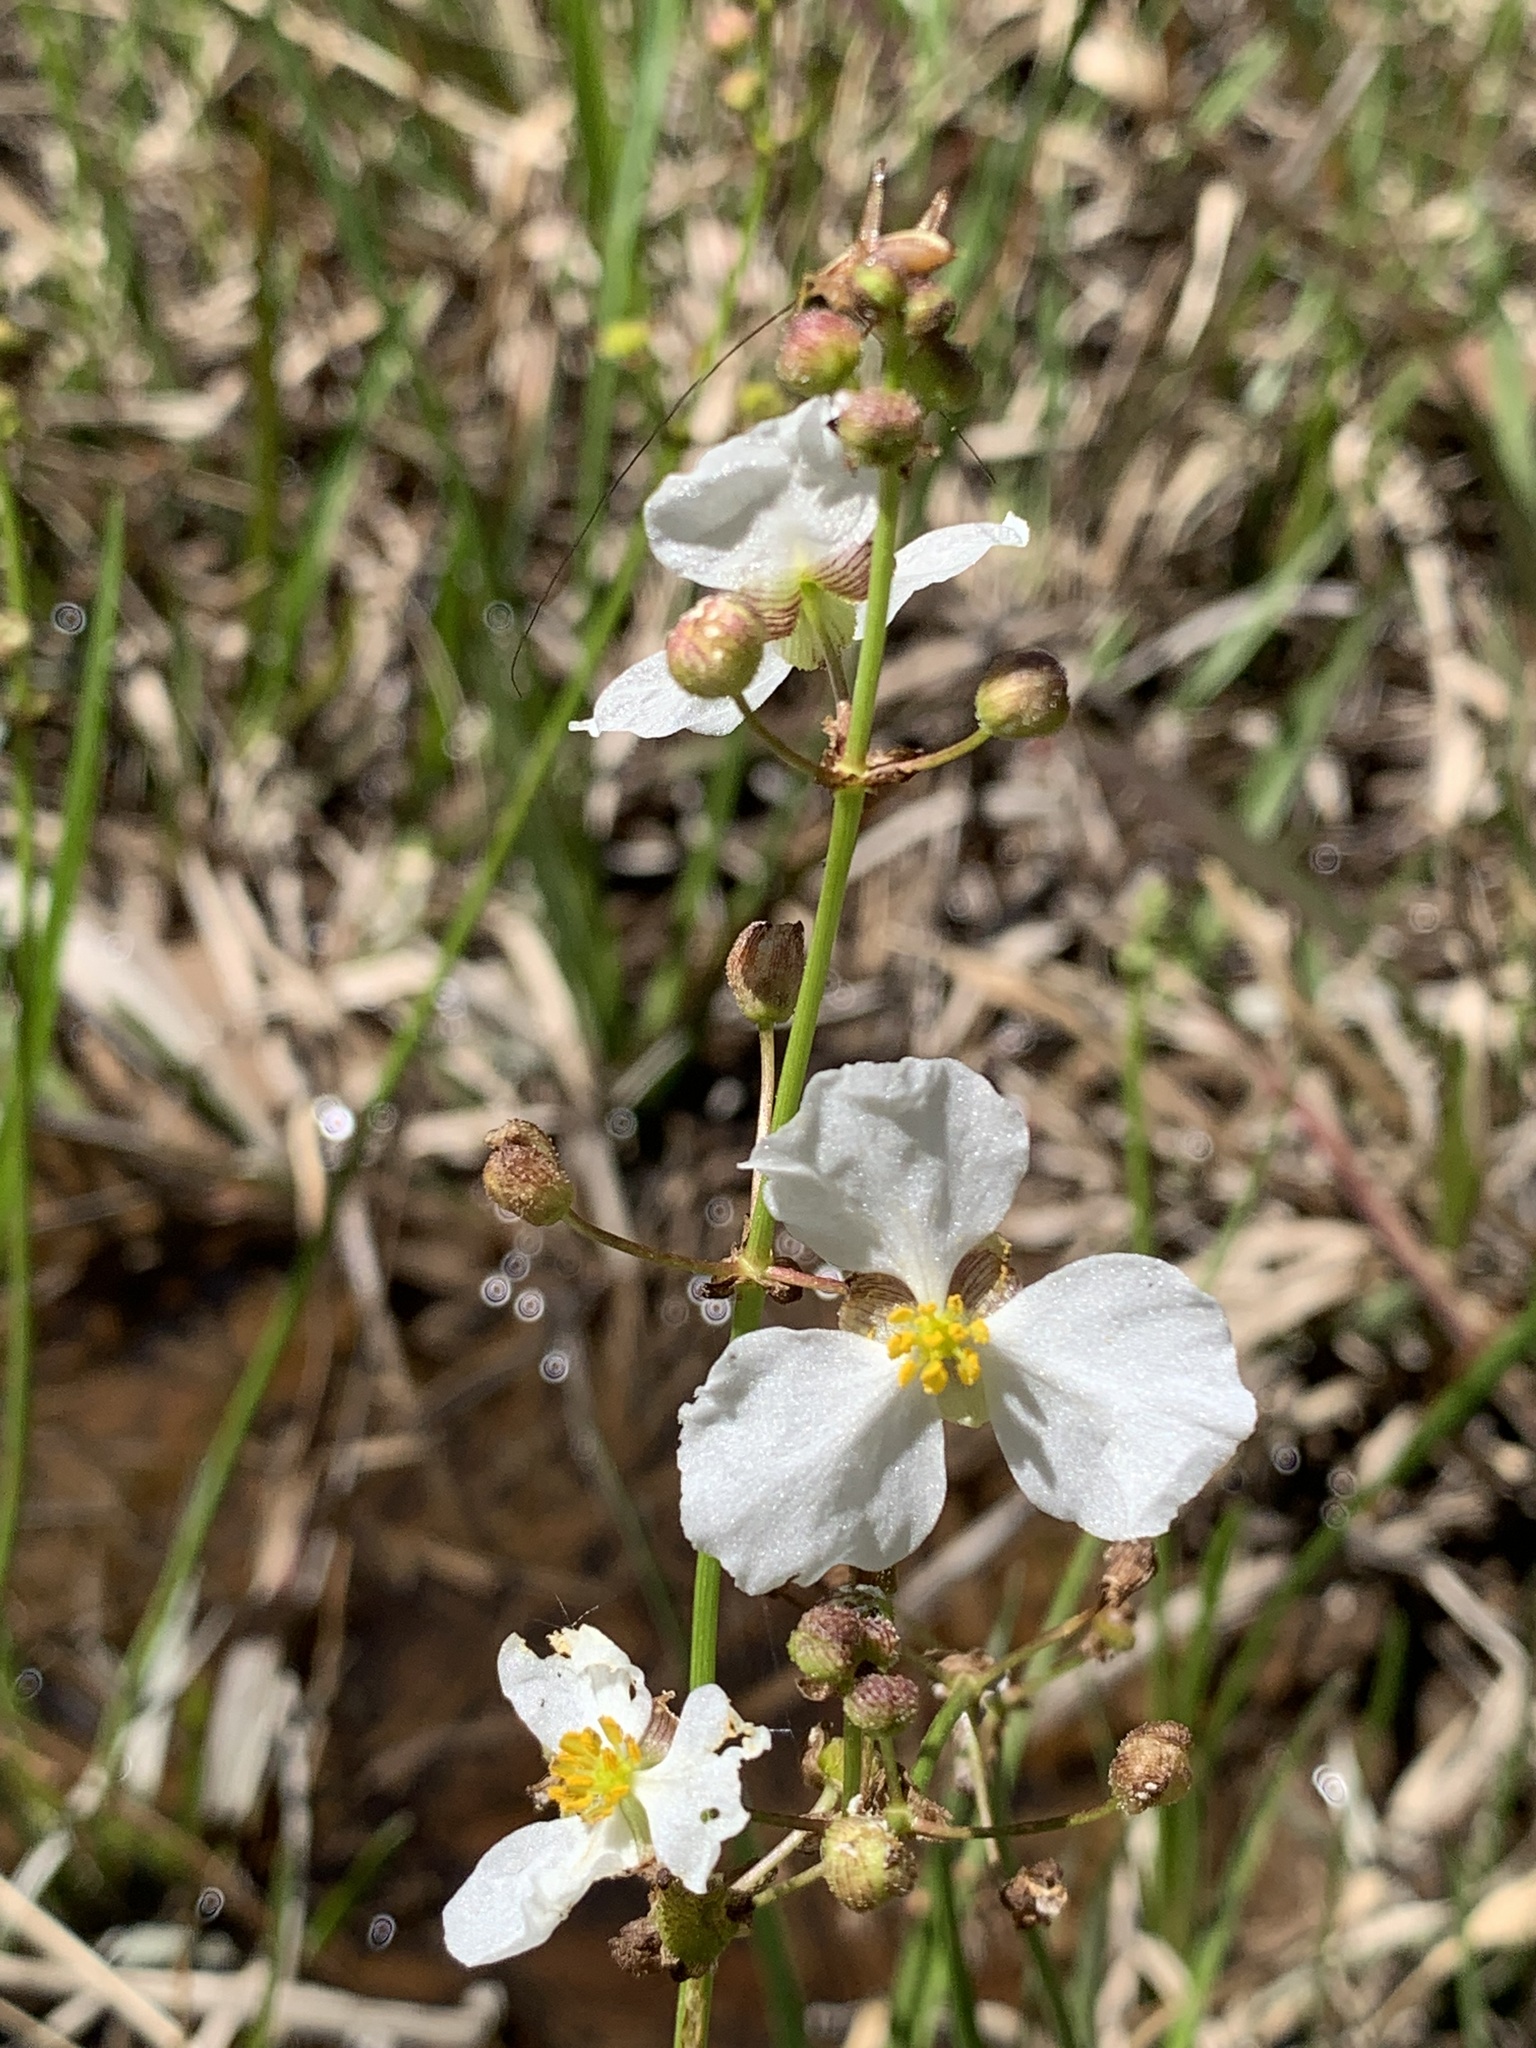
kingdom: Plantae
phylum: Tracheophyta
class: Liliopsida
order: Alismatales
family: Alismataceae
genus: Sagittaria
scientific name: Sagittaria papillosa
